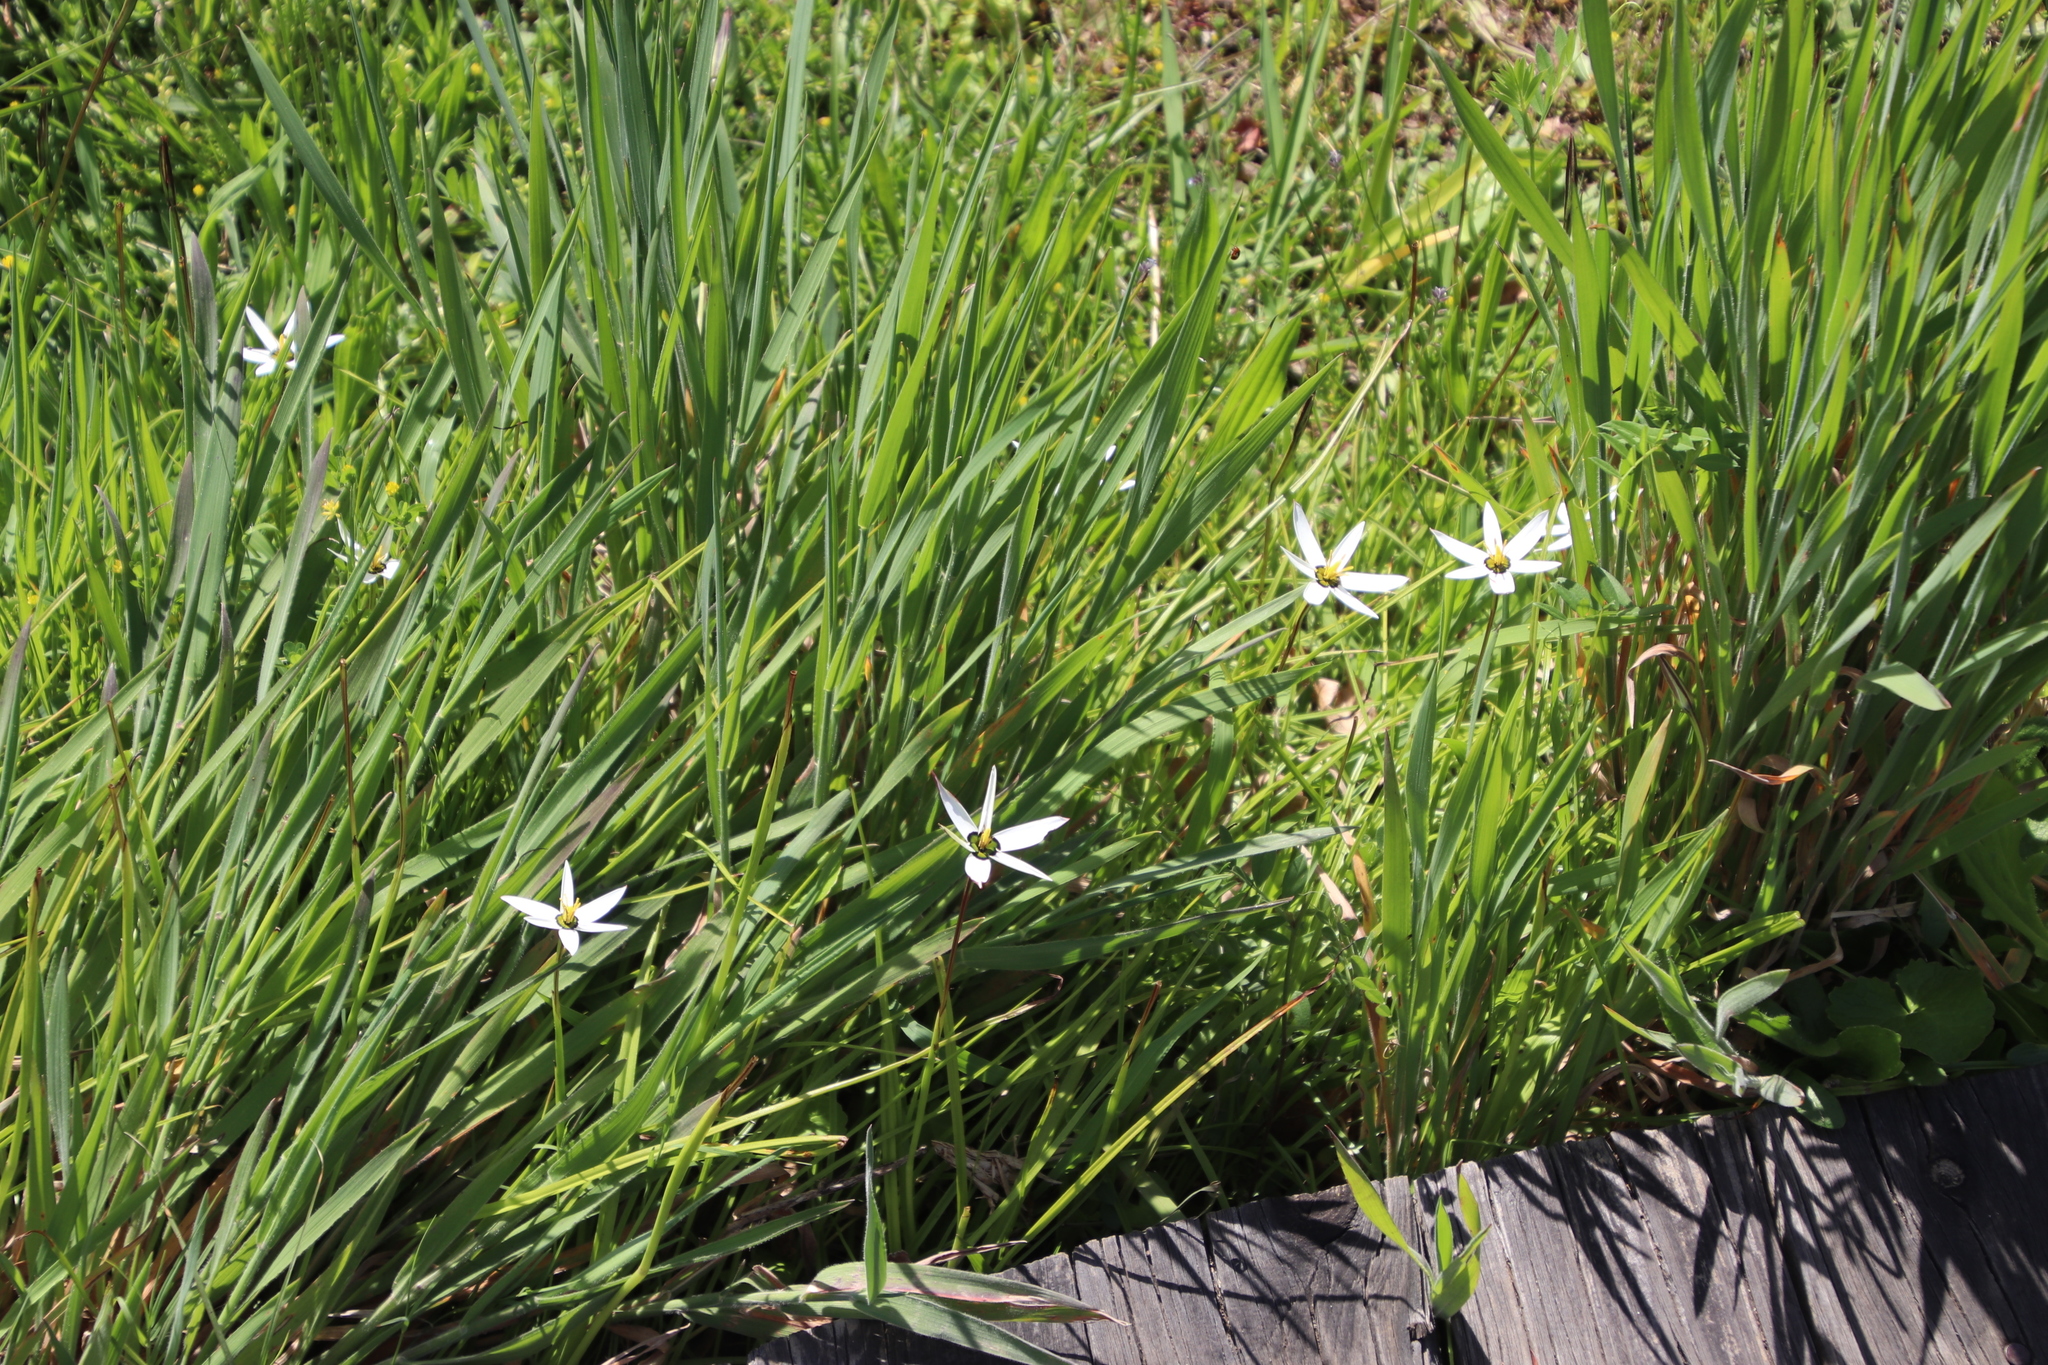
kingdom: Plantae
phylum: Tracheophyta
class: Liliopsida
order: Asparagales
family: Hypoxidaceae
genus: Pauridia
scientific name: Pauridia capensis
